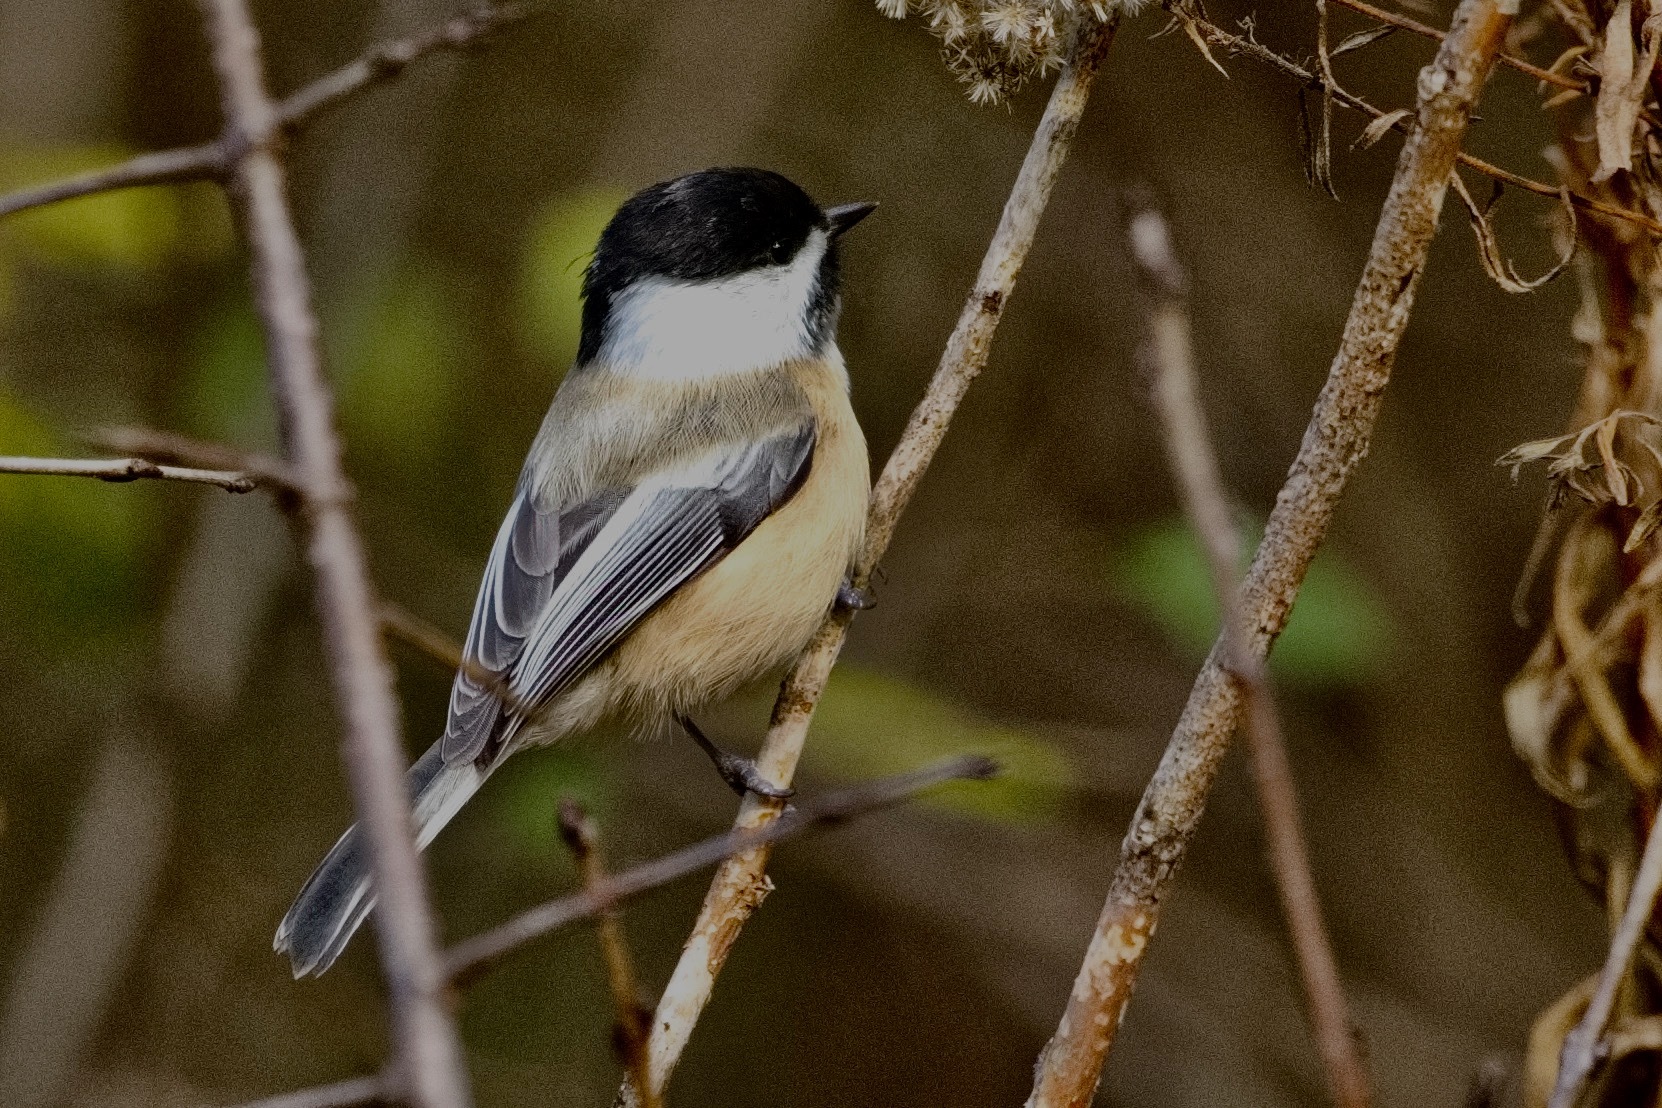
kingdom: Animalia
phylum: Chordata
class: Aves
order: Passeriformes
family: Paridae
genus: Poecile
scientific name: Poecile atricapillus
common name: Black-capped chickadee
